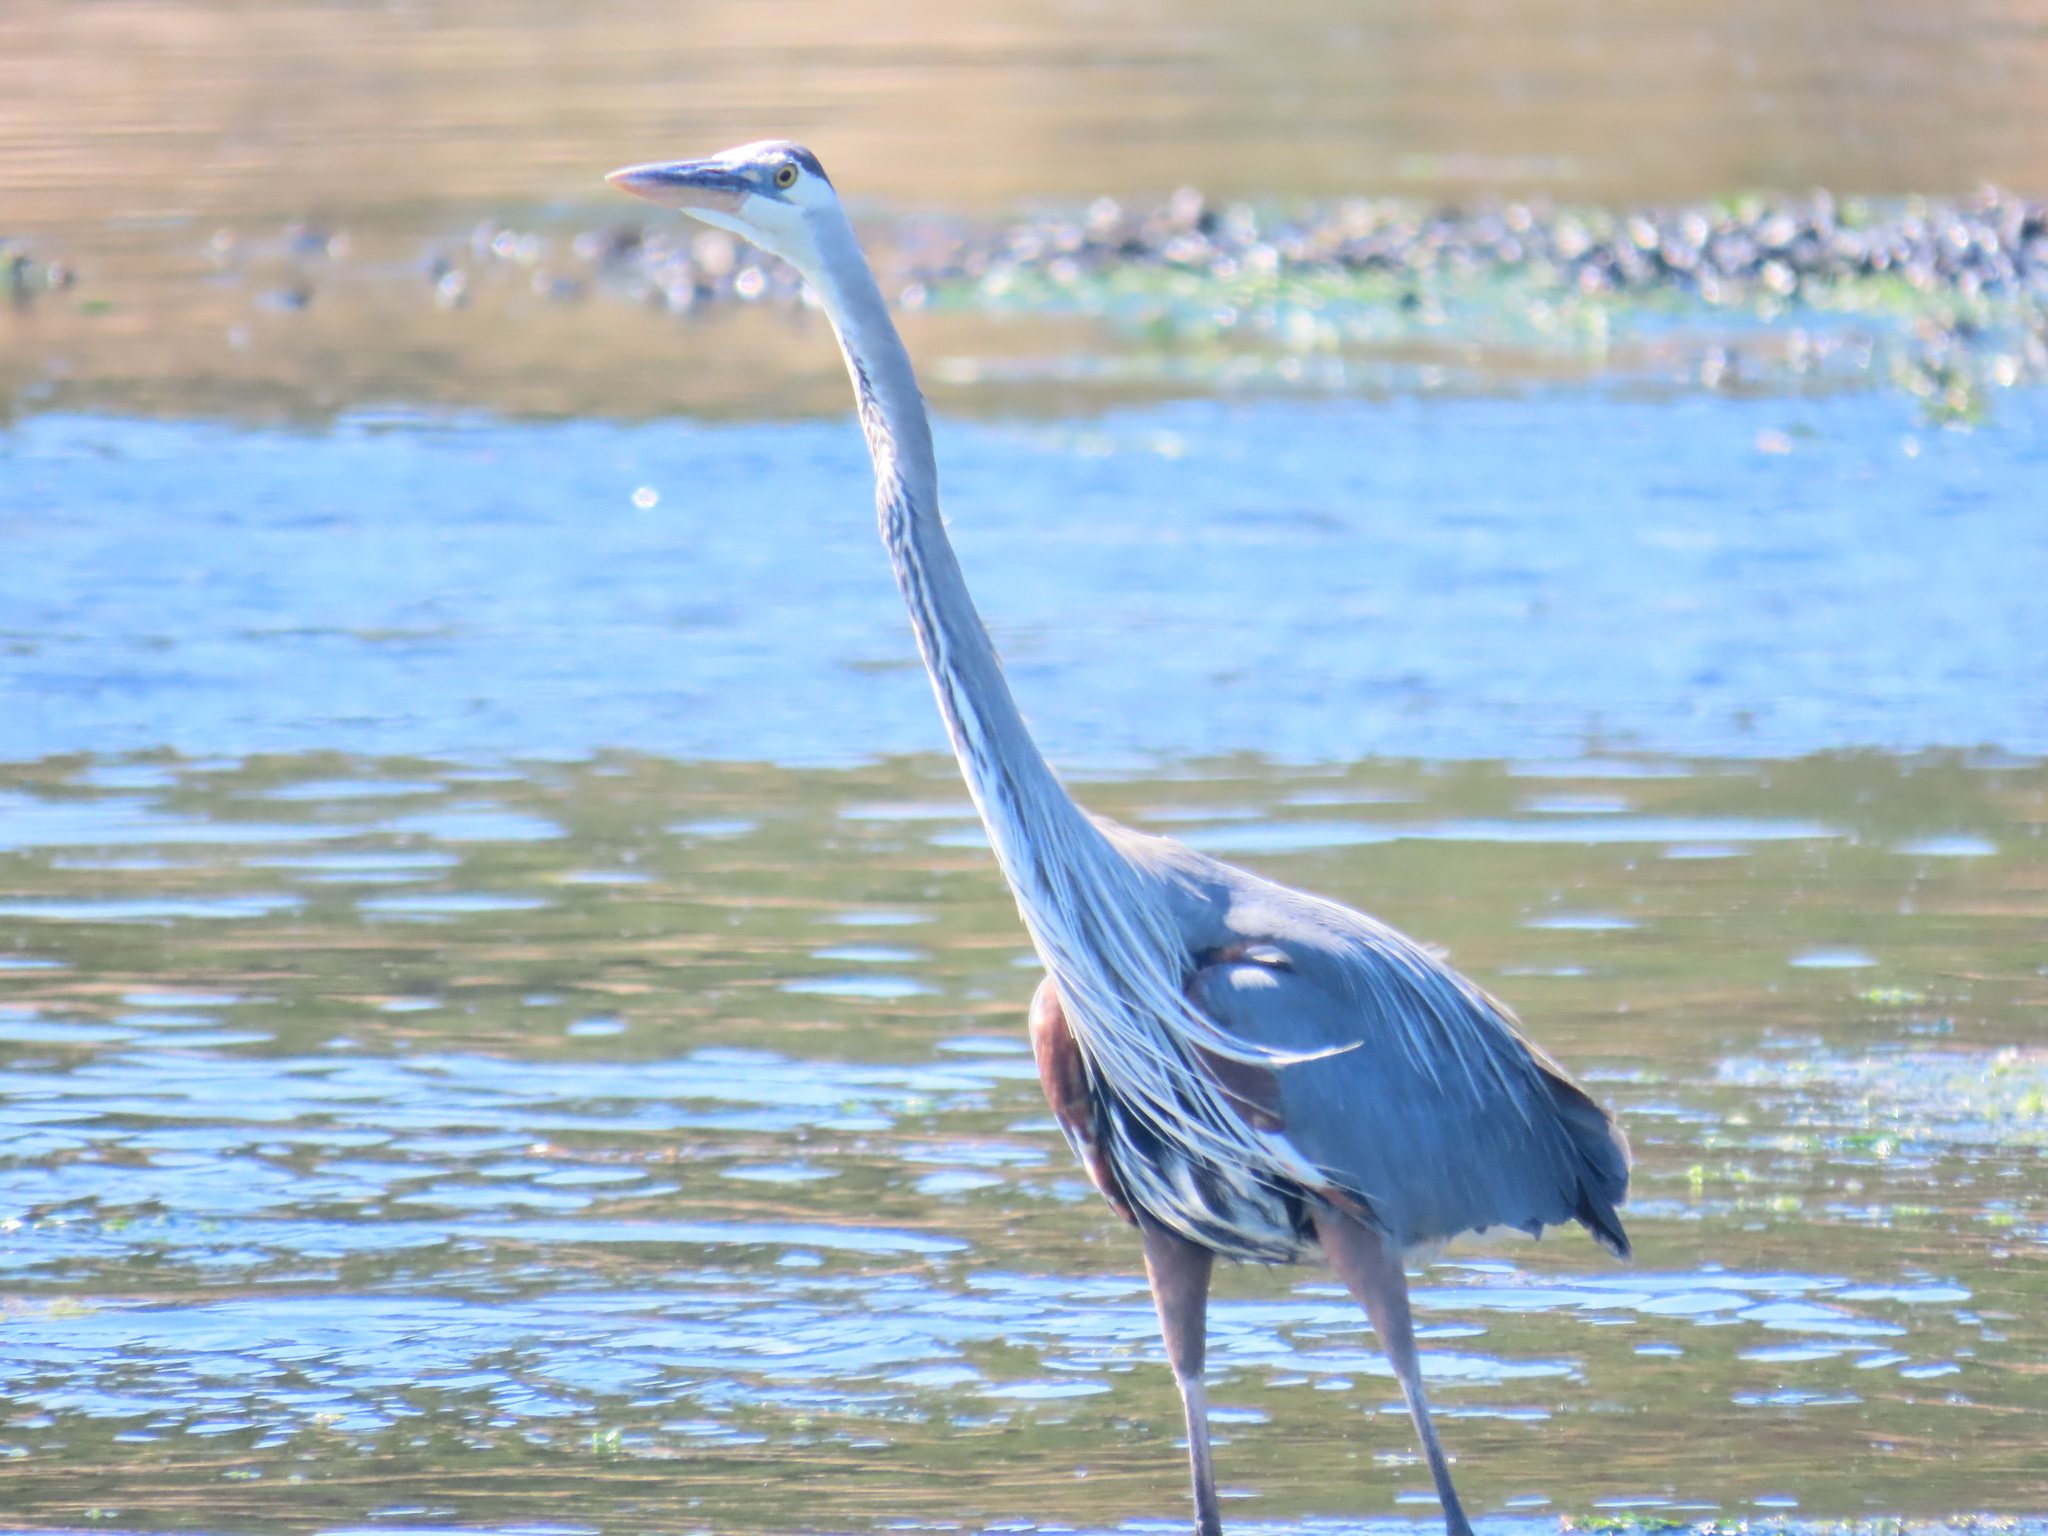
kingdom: Animalia
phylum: Chordata
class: Aves
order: Pelecaniformes
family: Ardeidae
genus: Ardea
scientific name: Ardea herodias
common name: Great blue heron
